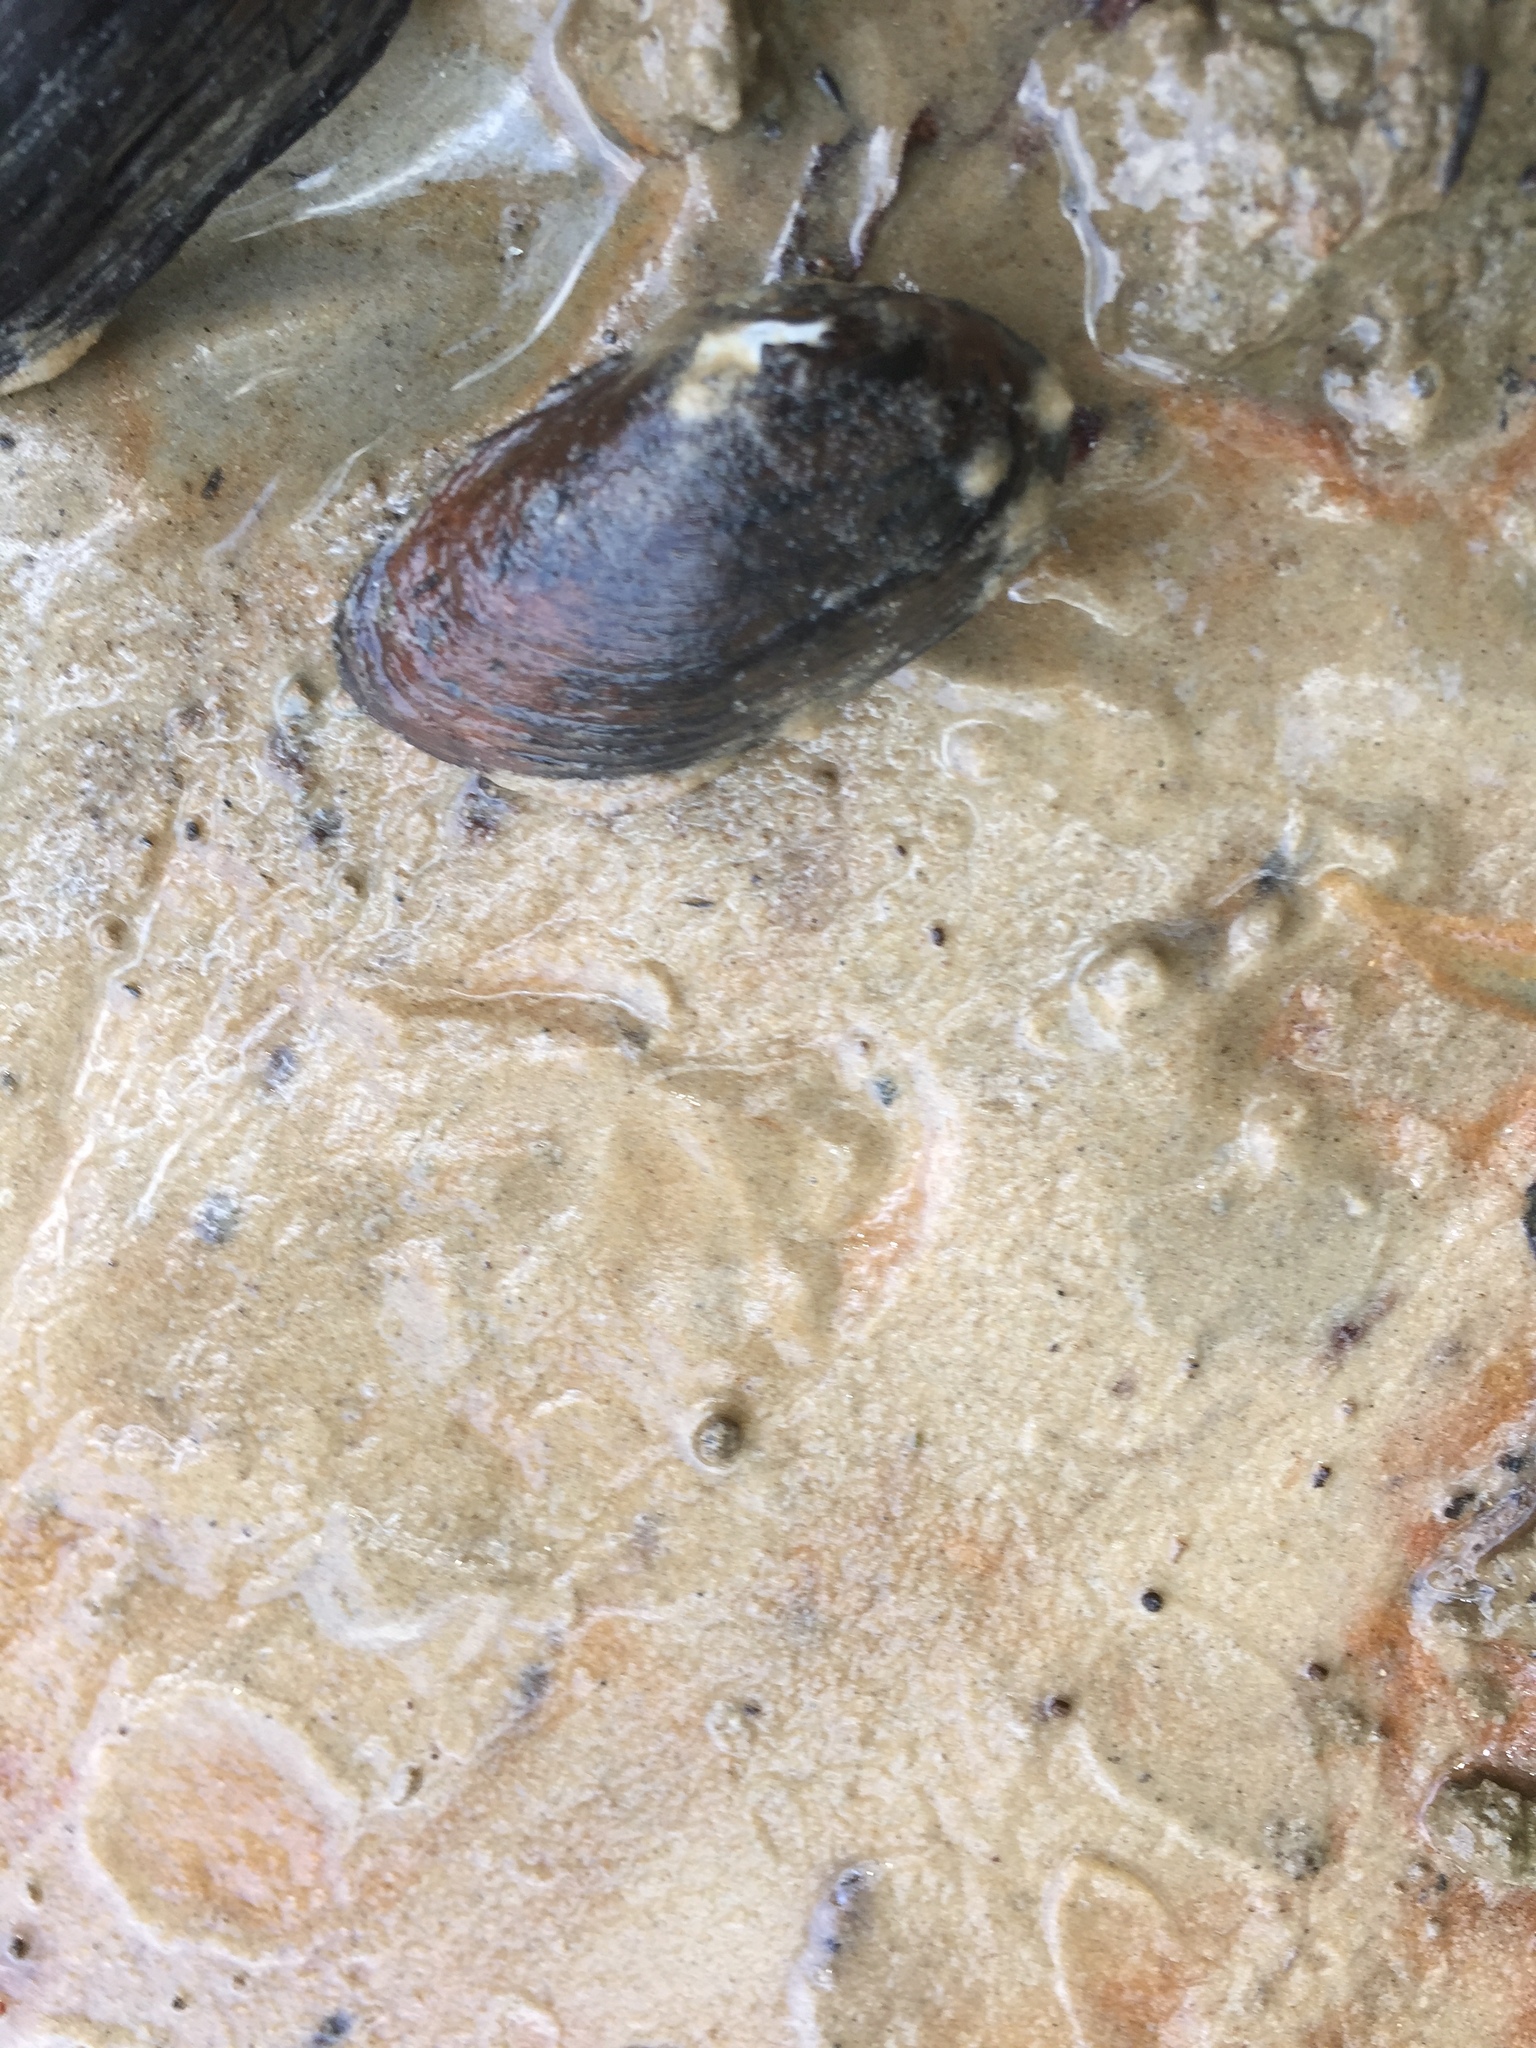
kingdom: Animalia
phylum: Mollusca
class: Bivalvia
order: Unionida
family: Unionidae
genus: Toxolasma
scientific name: Toxolasma texasiense
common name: Texas lilliput
